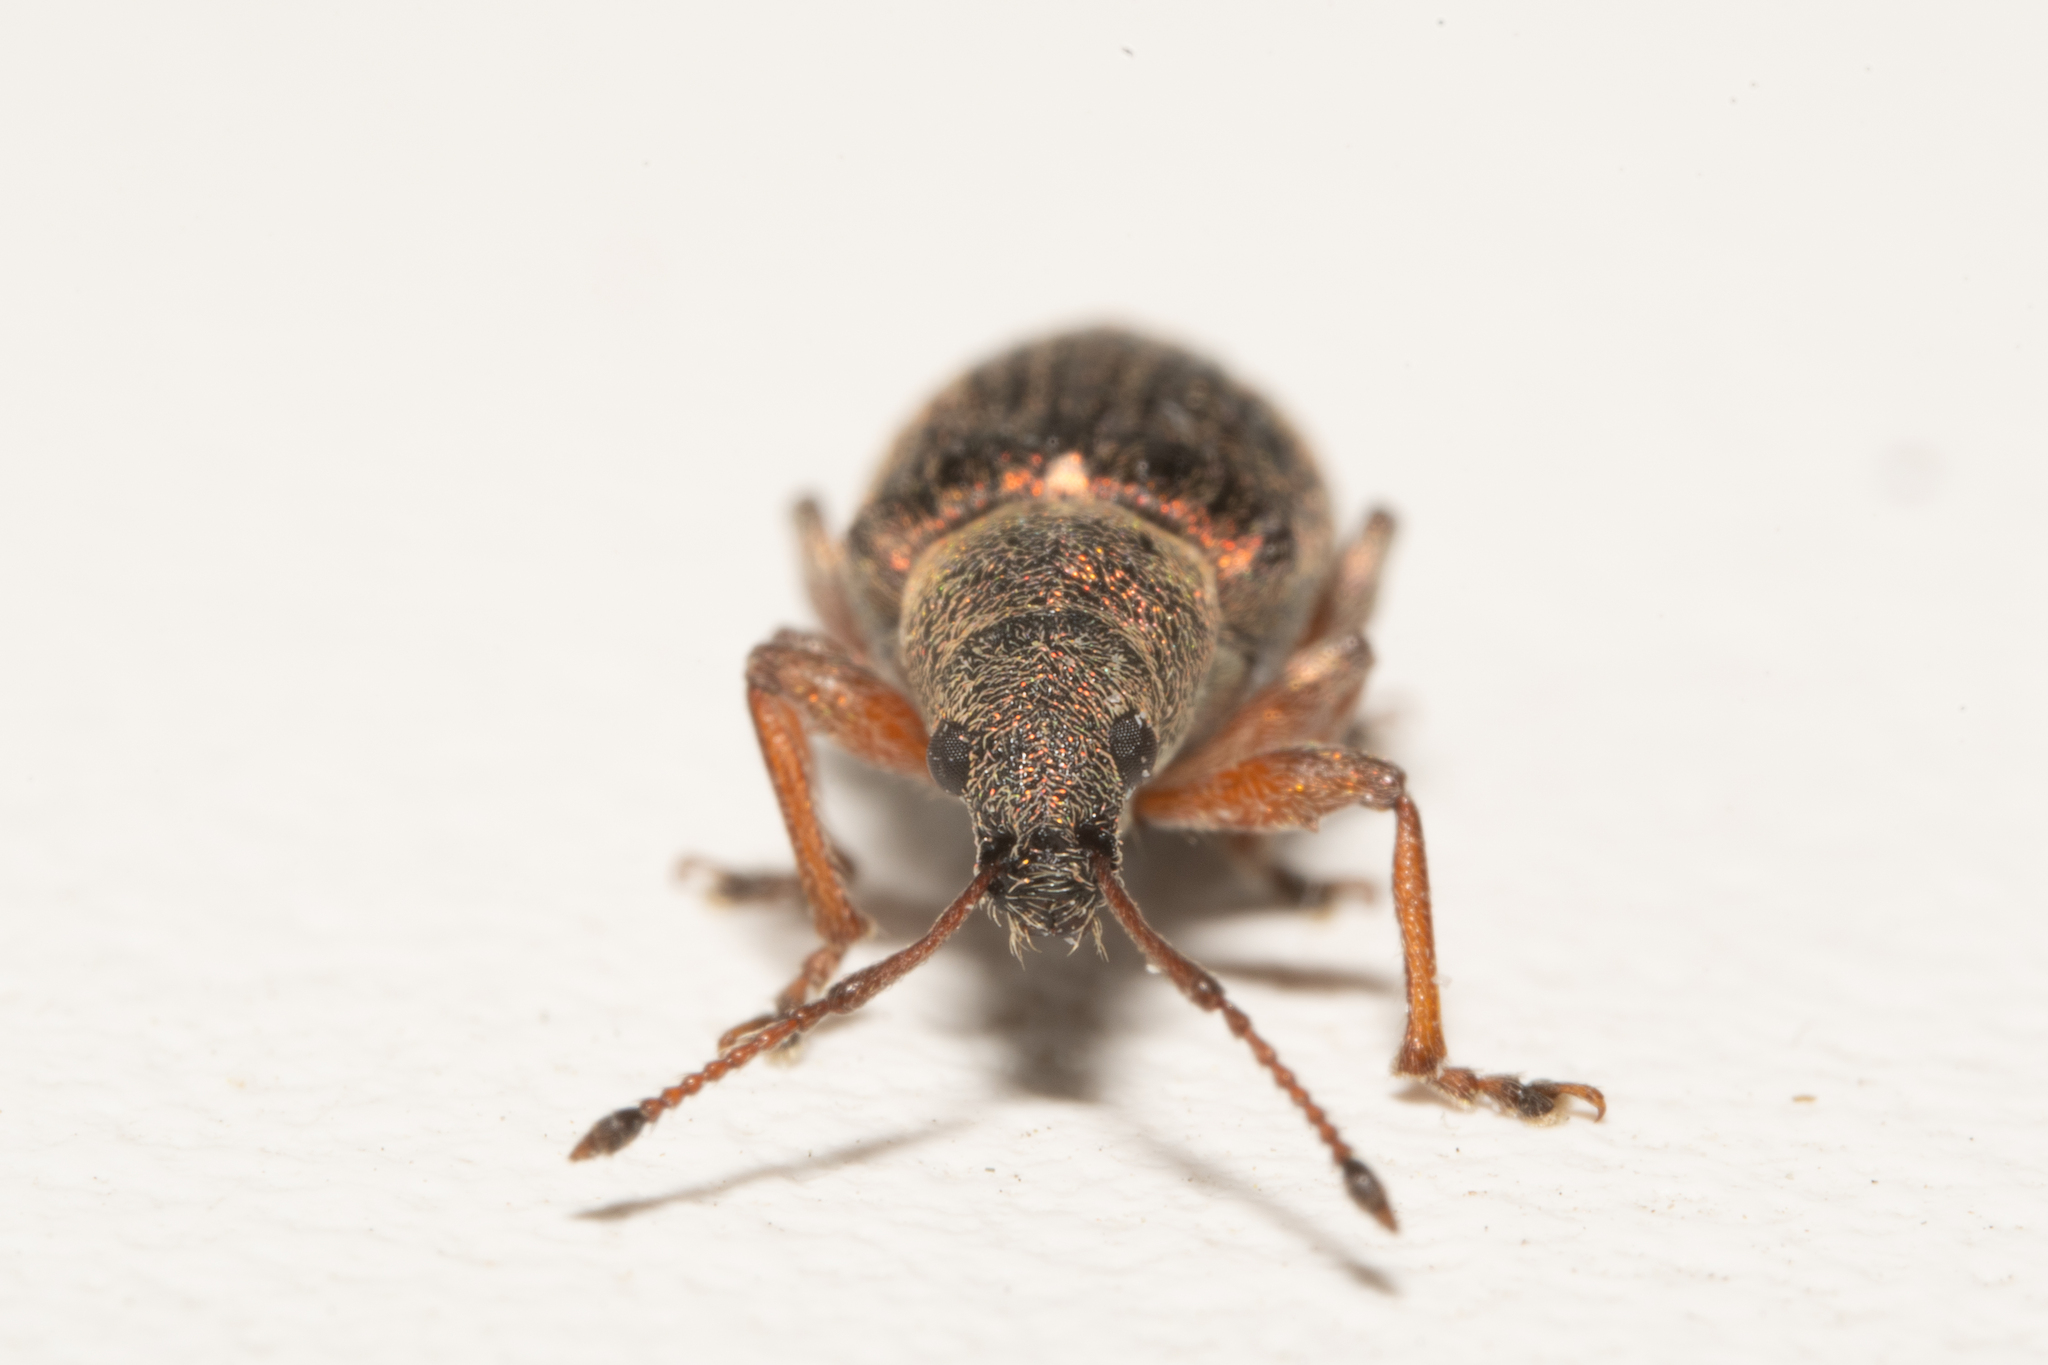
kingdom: Animalia
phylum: Arthropoda
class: Insecta
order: Coleoptera
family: Curculionidae
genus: Phyllobius
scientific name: Phyllobius pyri
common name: Common leaf weevil
